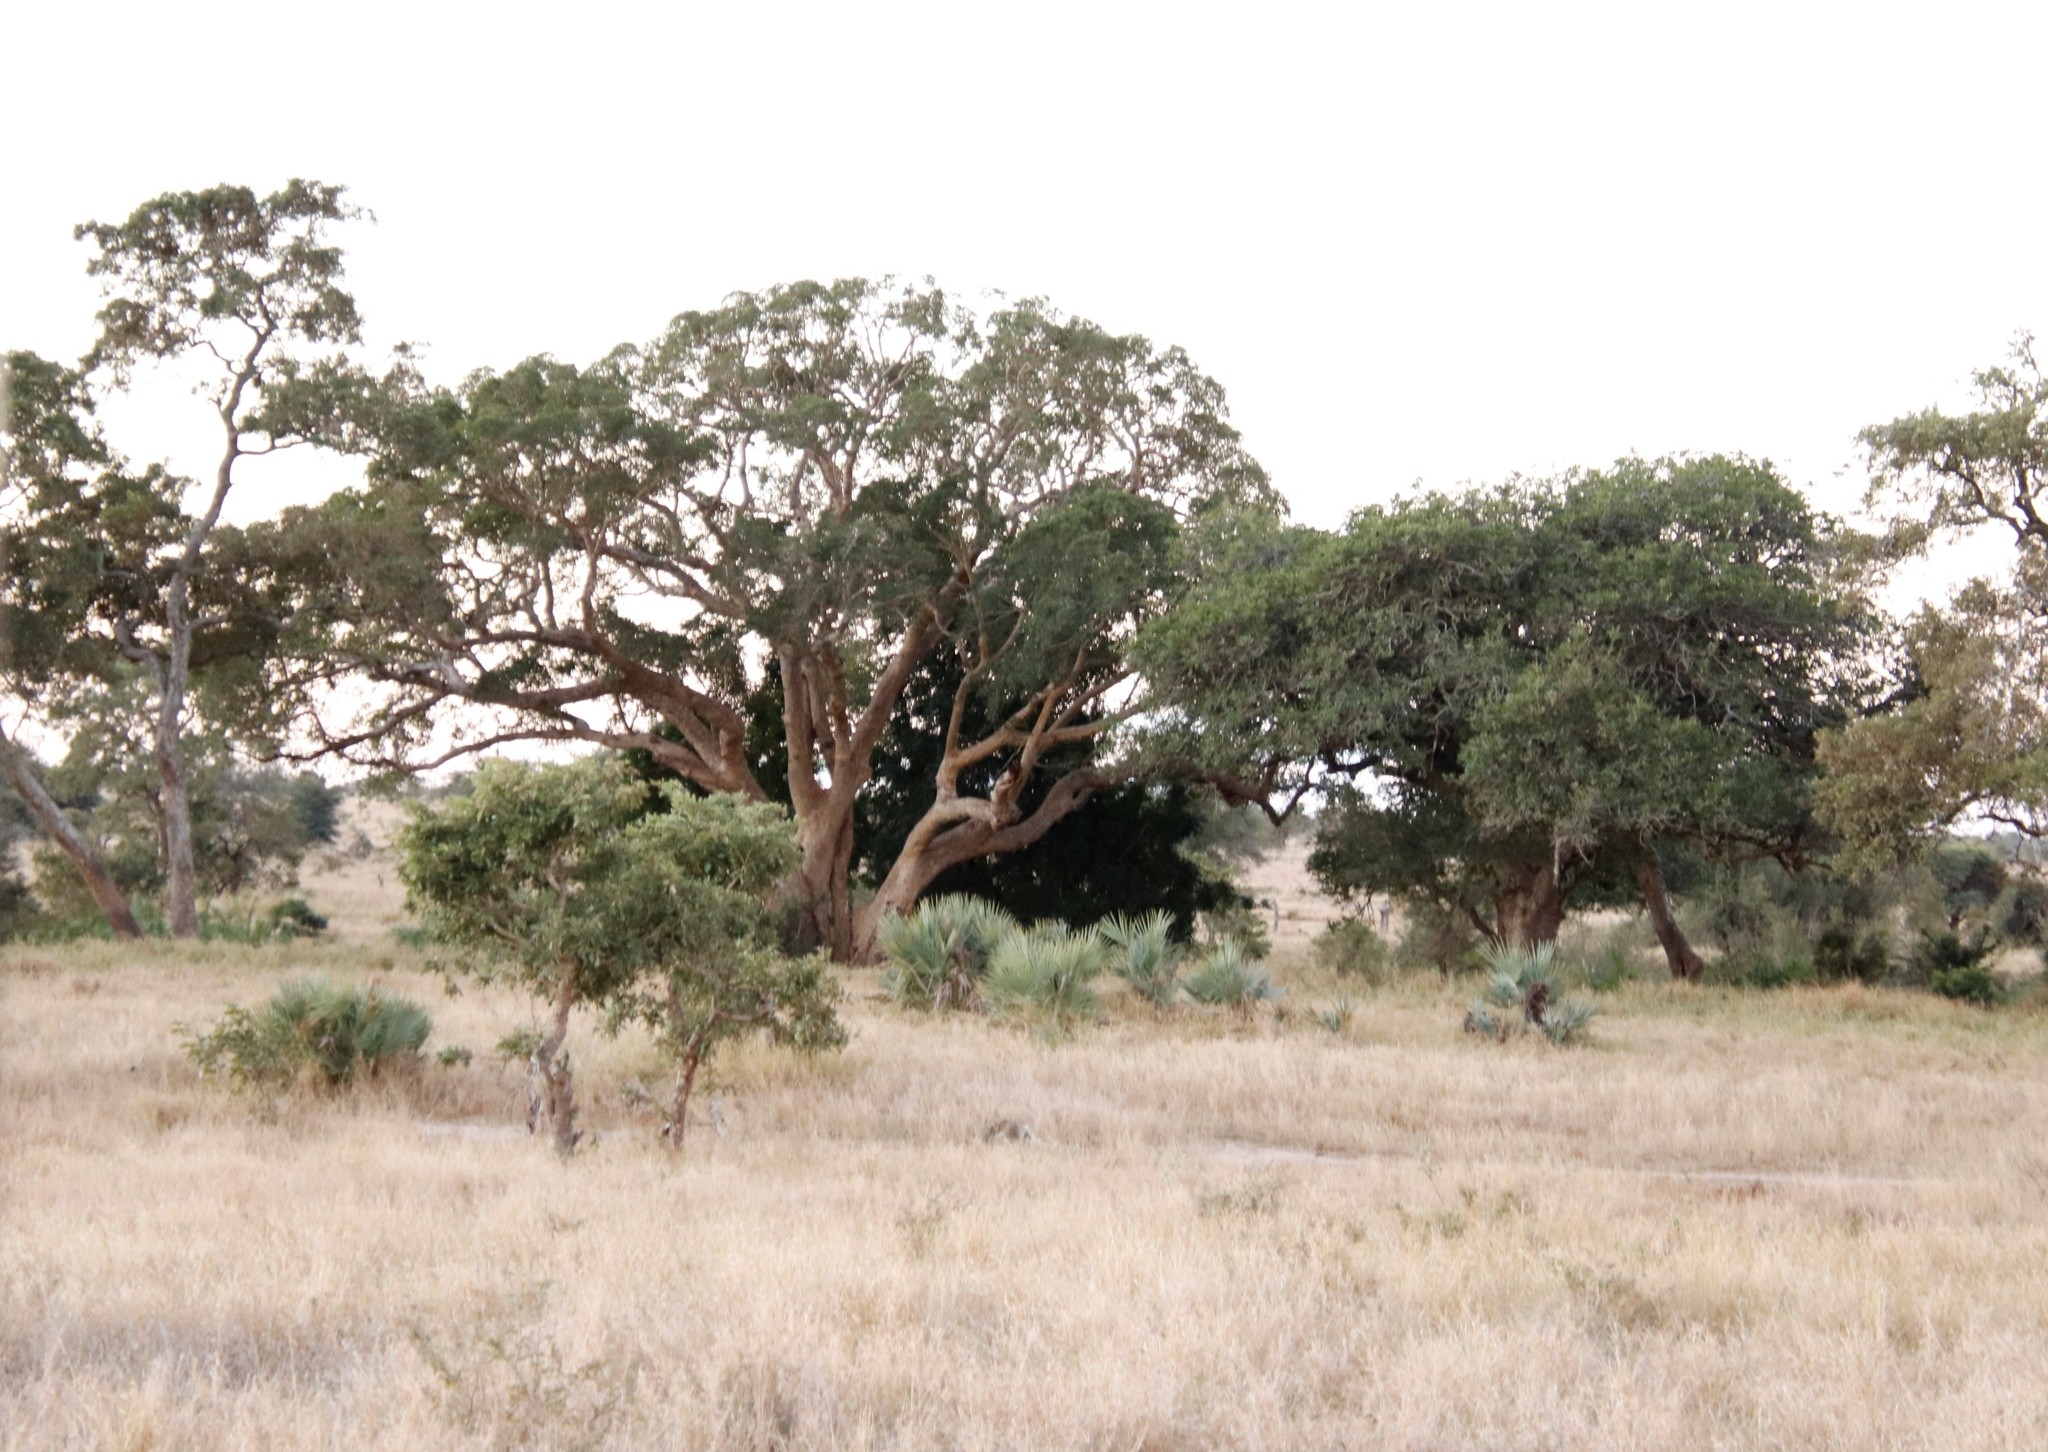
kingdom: Plantae
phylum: Tracheophyta
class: Magnoliopsida
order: Rosales
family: Moraceae
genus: Ficus
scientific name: Ficus sycomorus
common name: Sycomore
